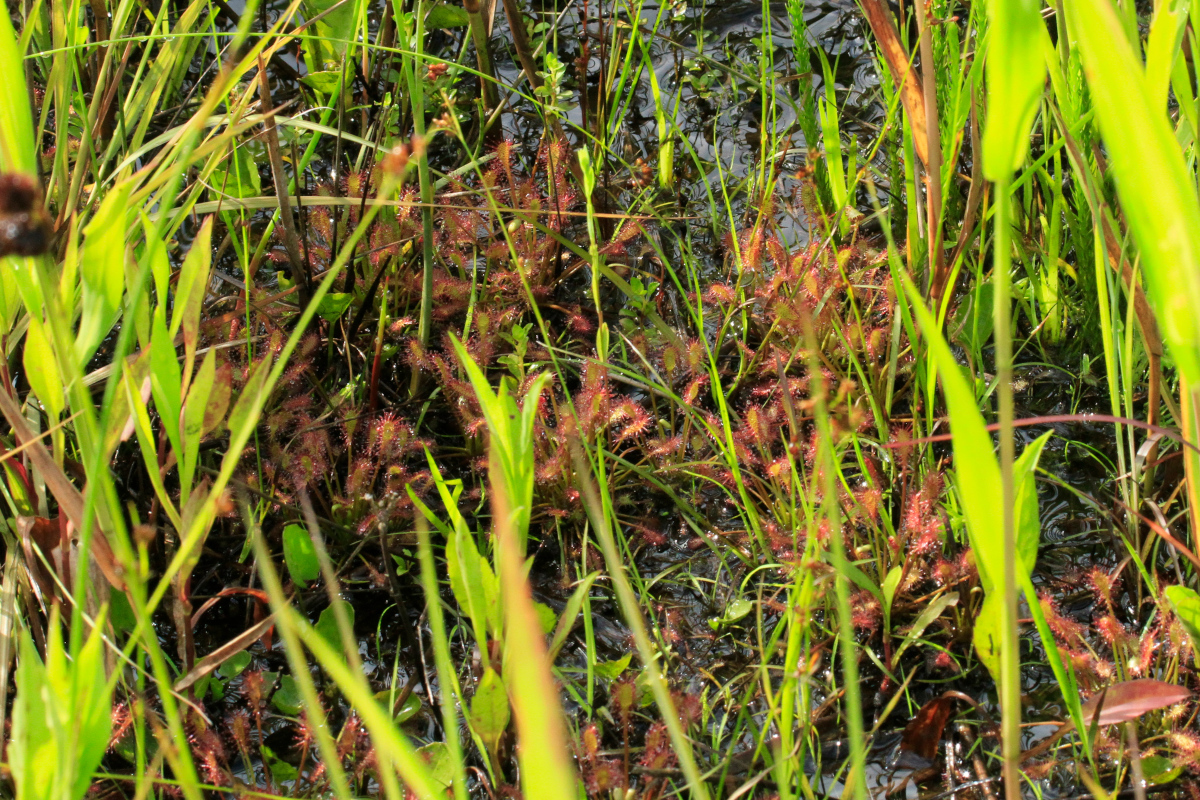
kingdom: Plantae
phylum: Tracheophyta
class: Magnoliopsida
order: Caryophyllales
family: Droseraceae
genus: Drosera
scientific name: Drosera intermedia
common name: Oblong-leaved sundew
